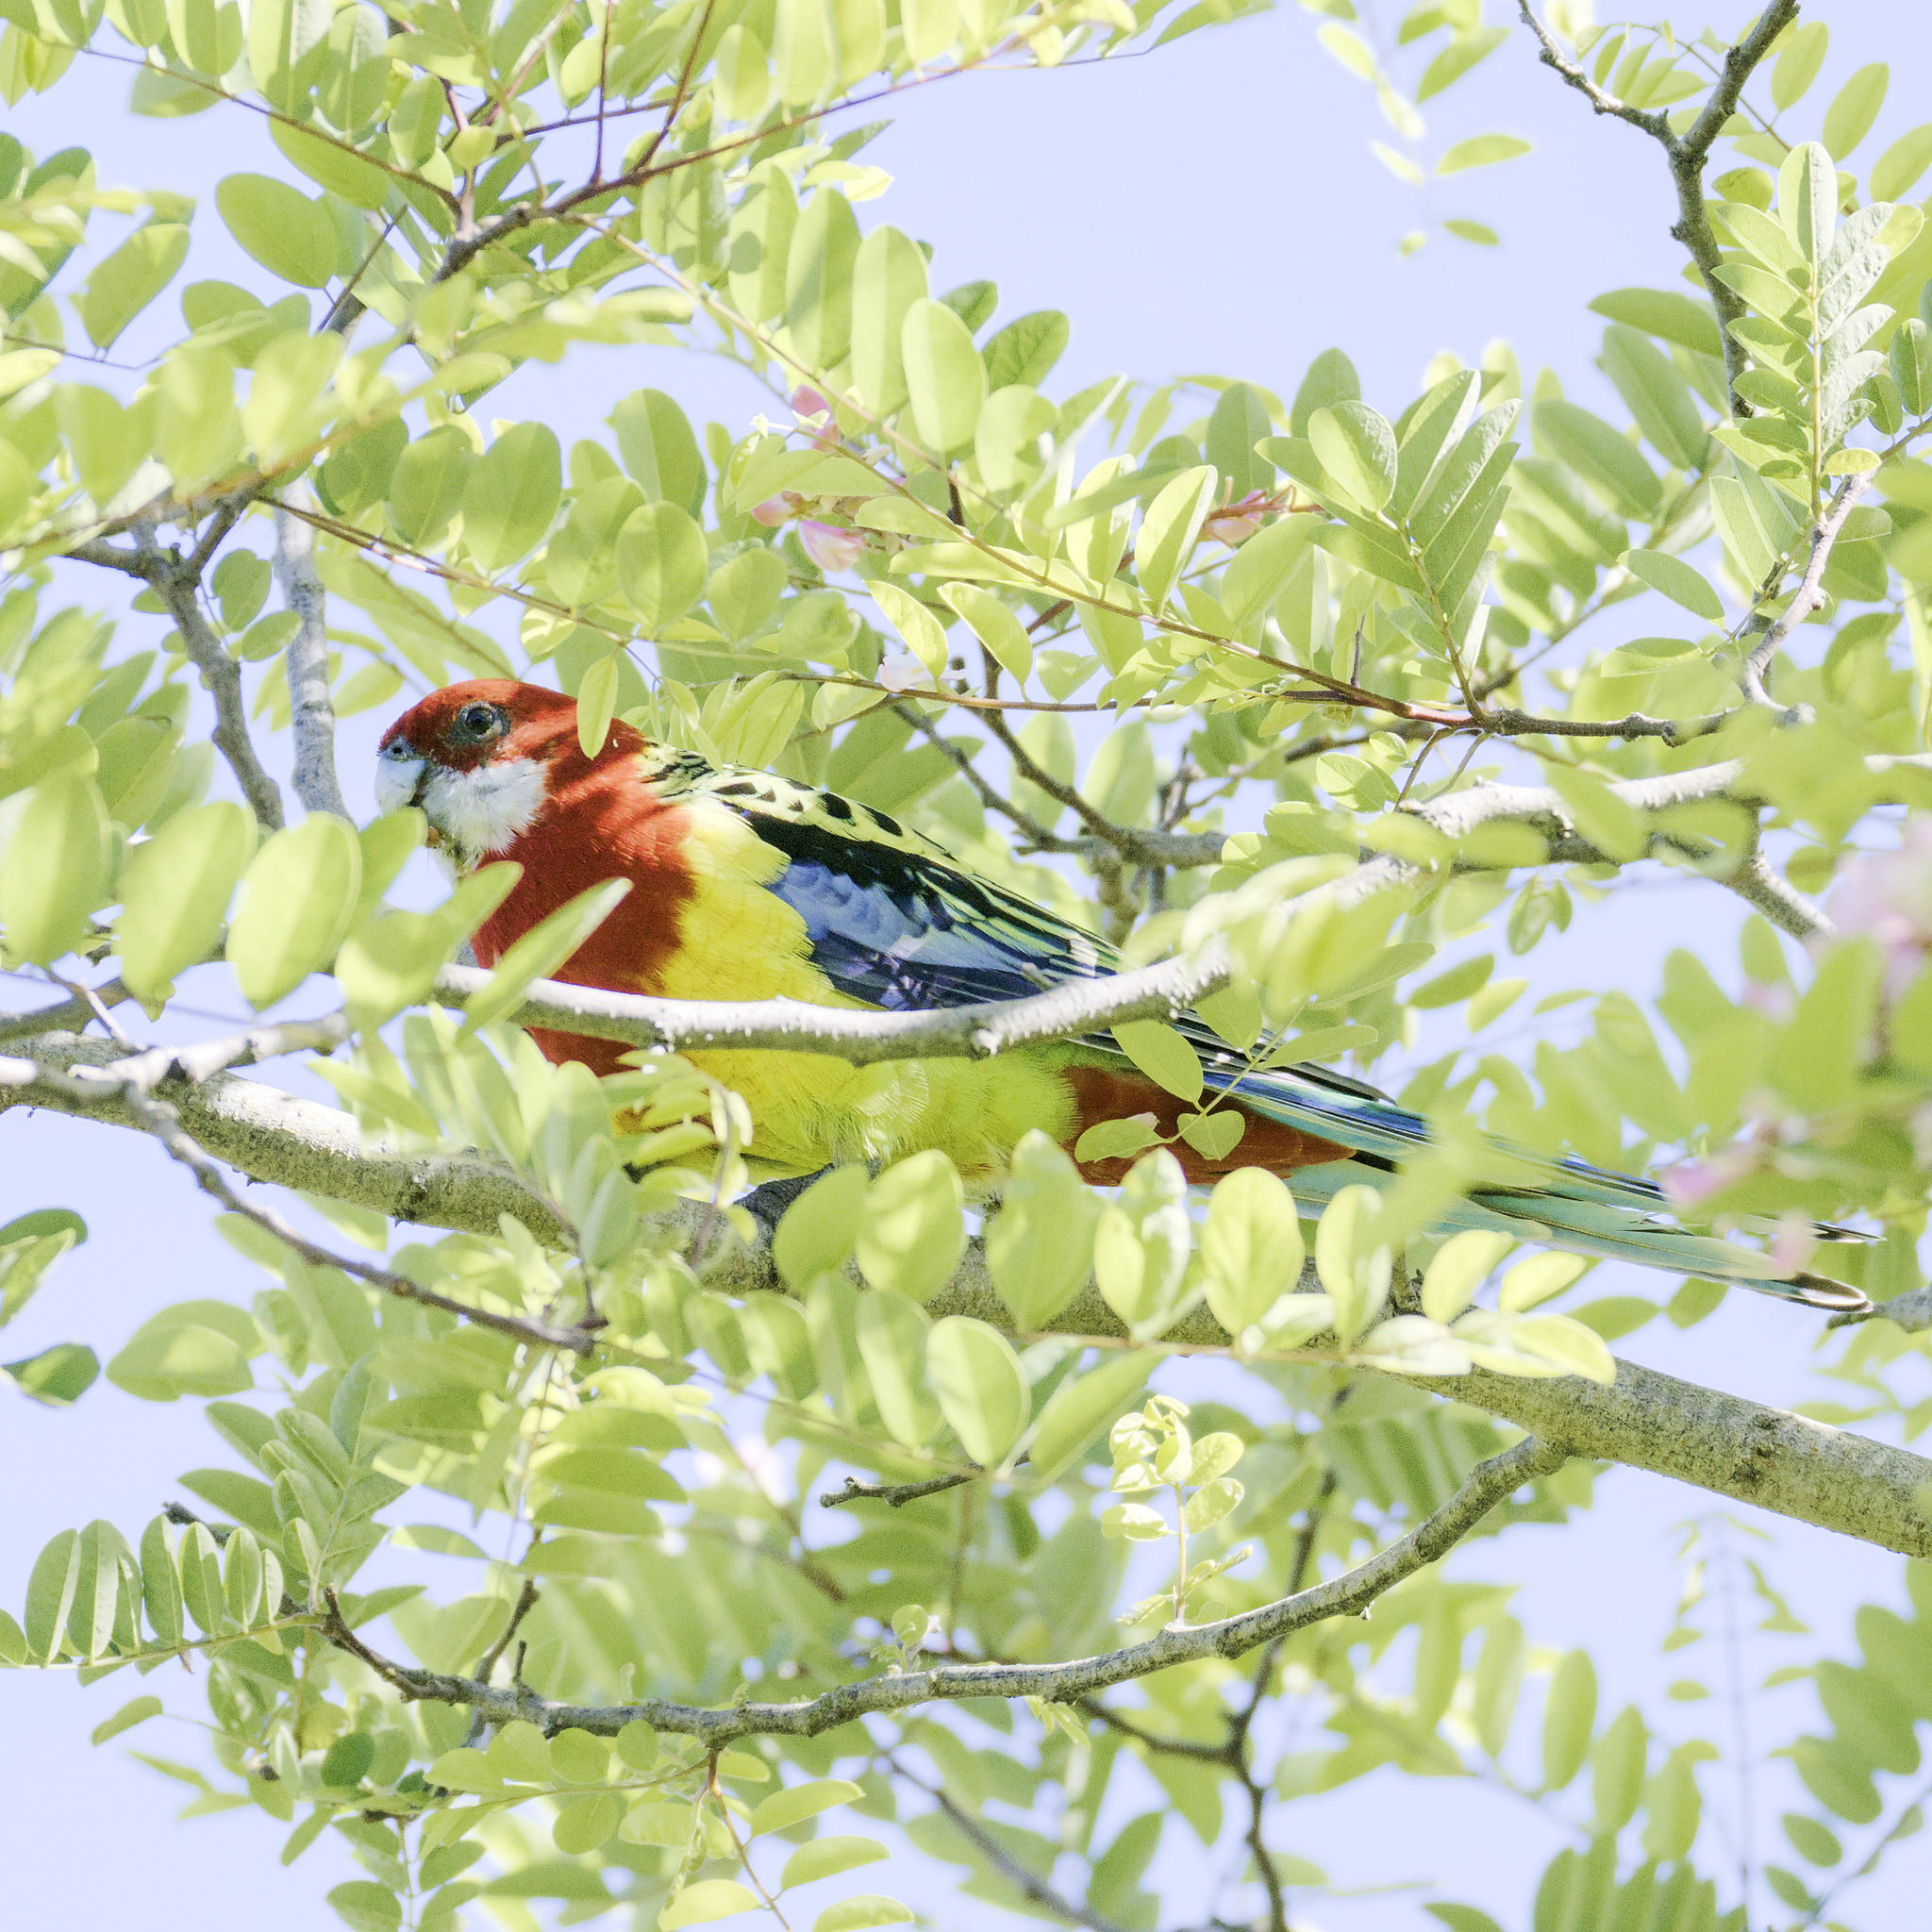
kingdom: Animalia
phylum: Chordata
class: Aves
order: Psittaciformes
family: Psittacidae
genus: Platycercus
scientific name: Platycercus eximius
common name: Eastern rosella
